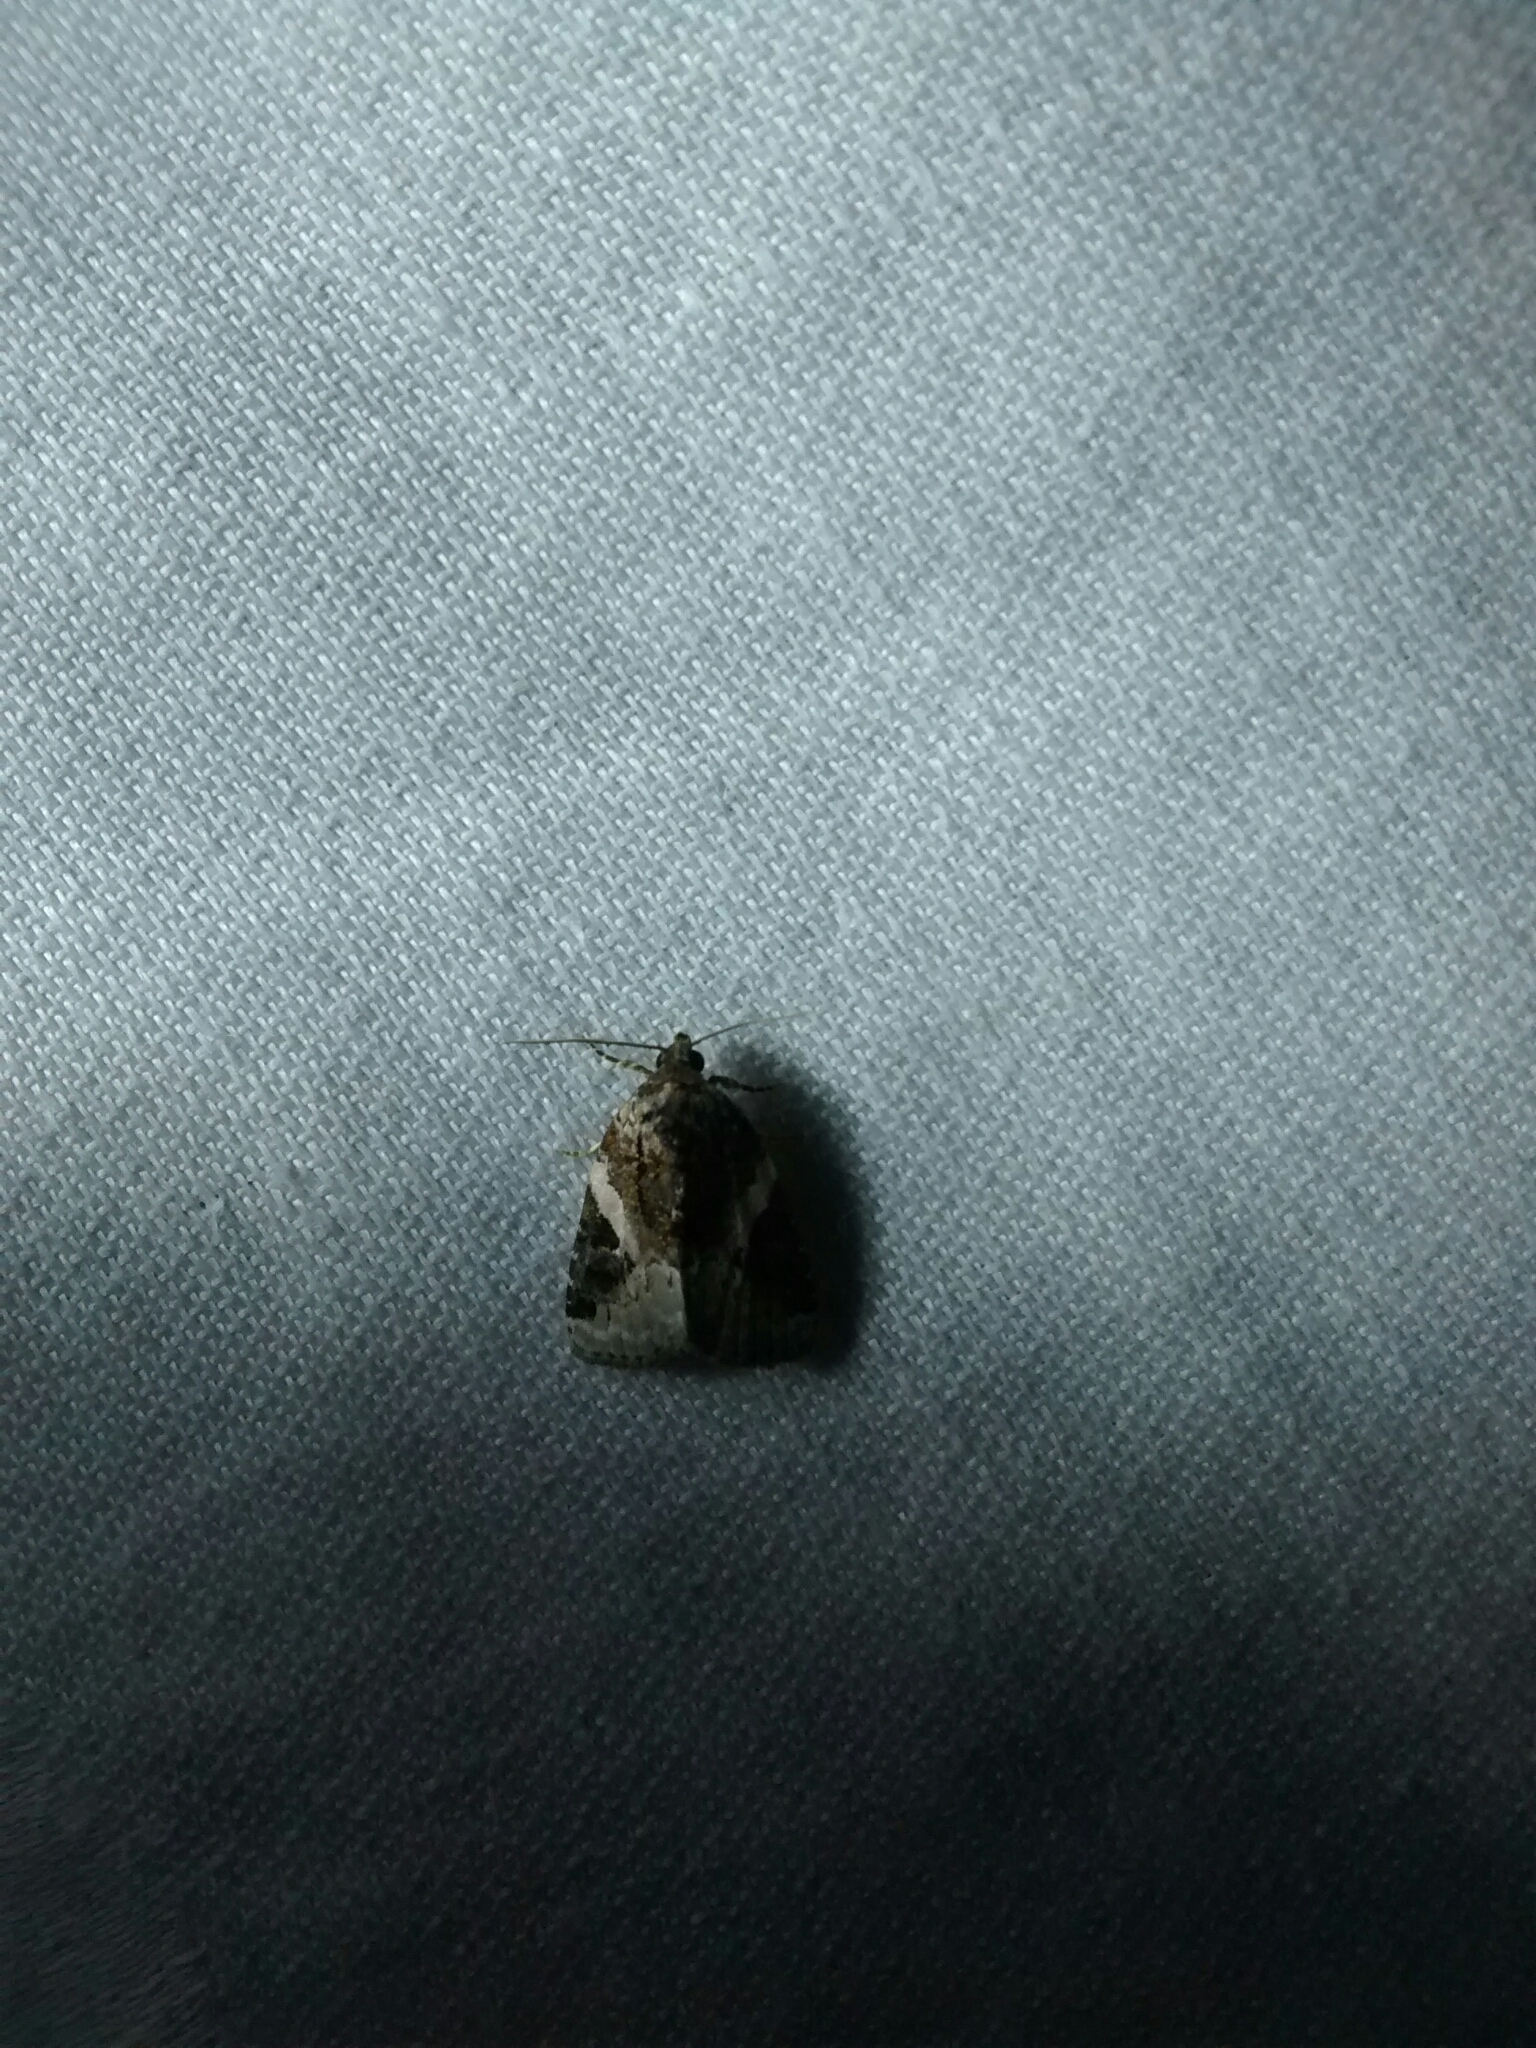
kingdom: Animalia
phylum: Arthropoda
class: Insecta
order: Lepidoptera
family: Noctuidae
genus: Pseudeustrotia
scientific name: Pseudeustrotia carneola
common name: Pink-barred lithacodia moth
